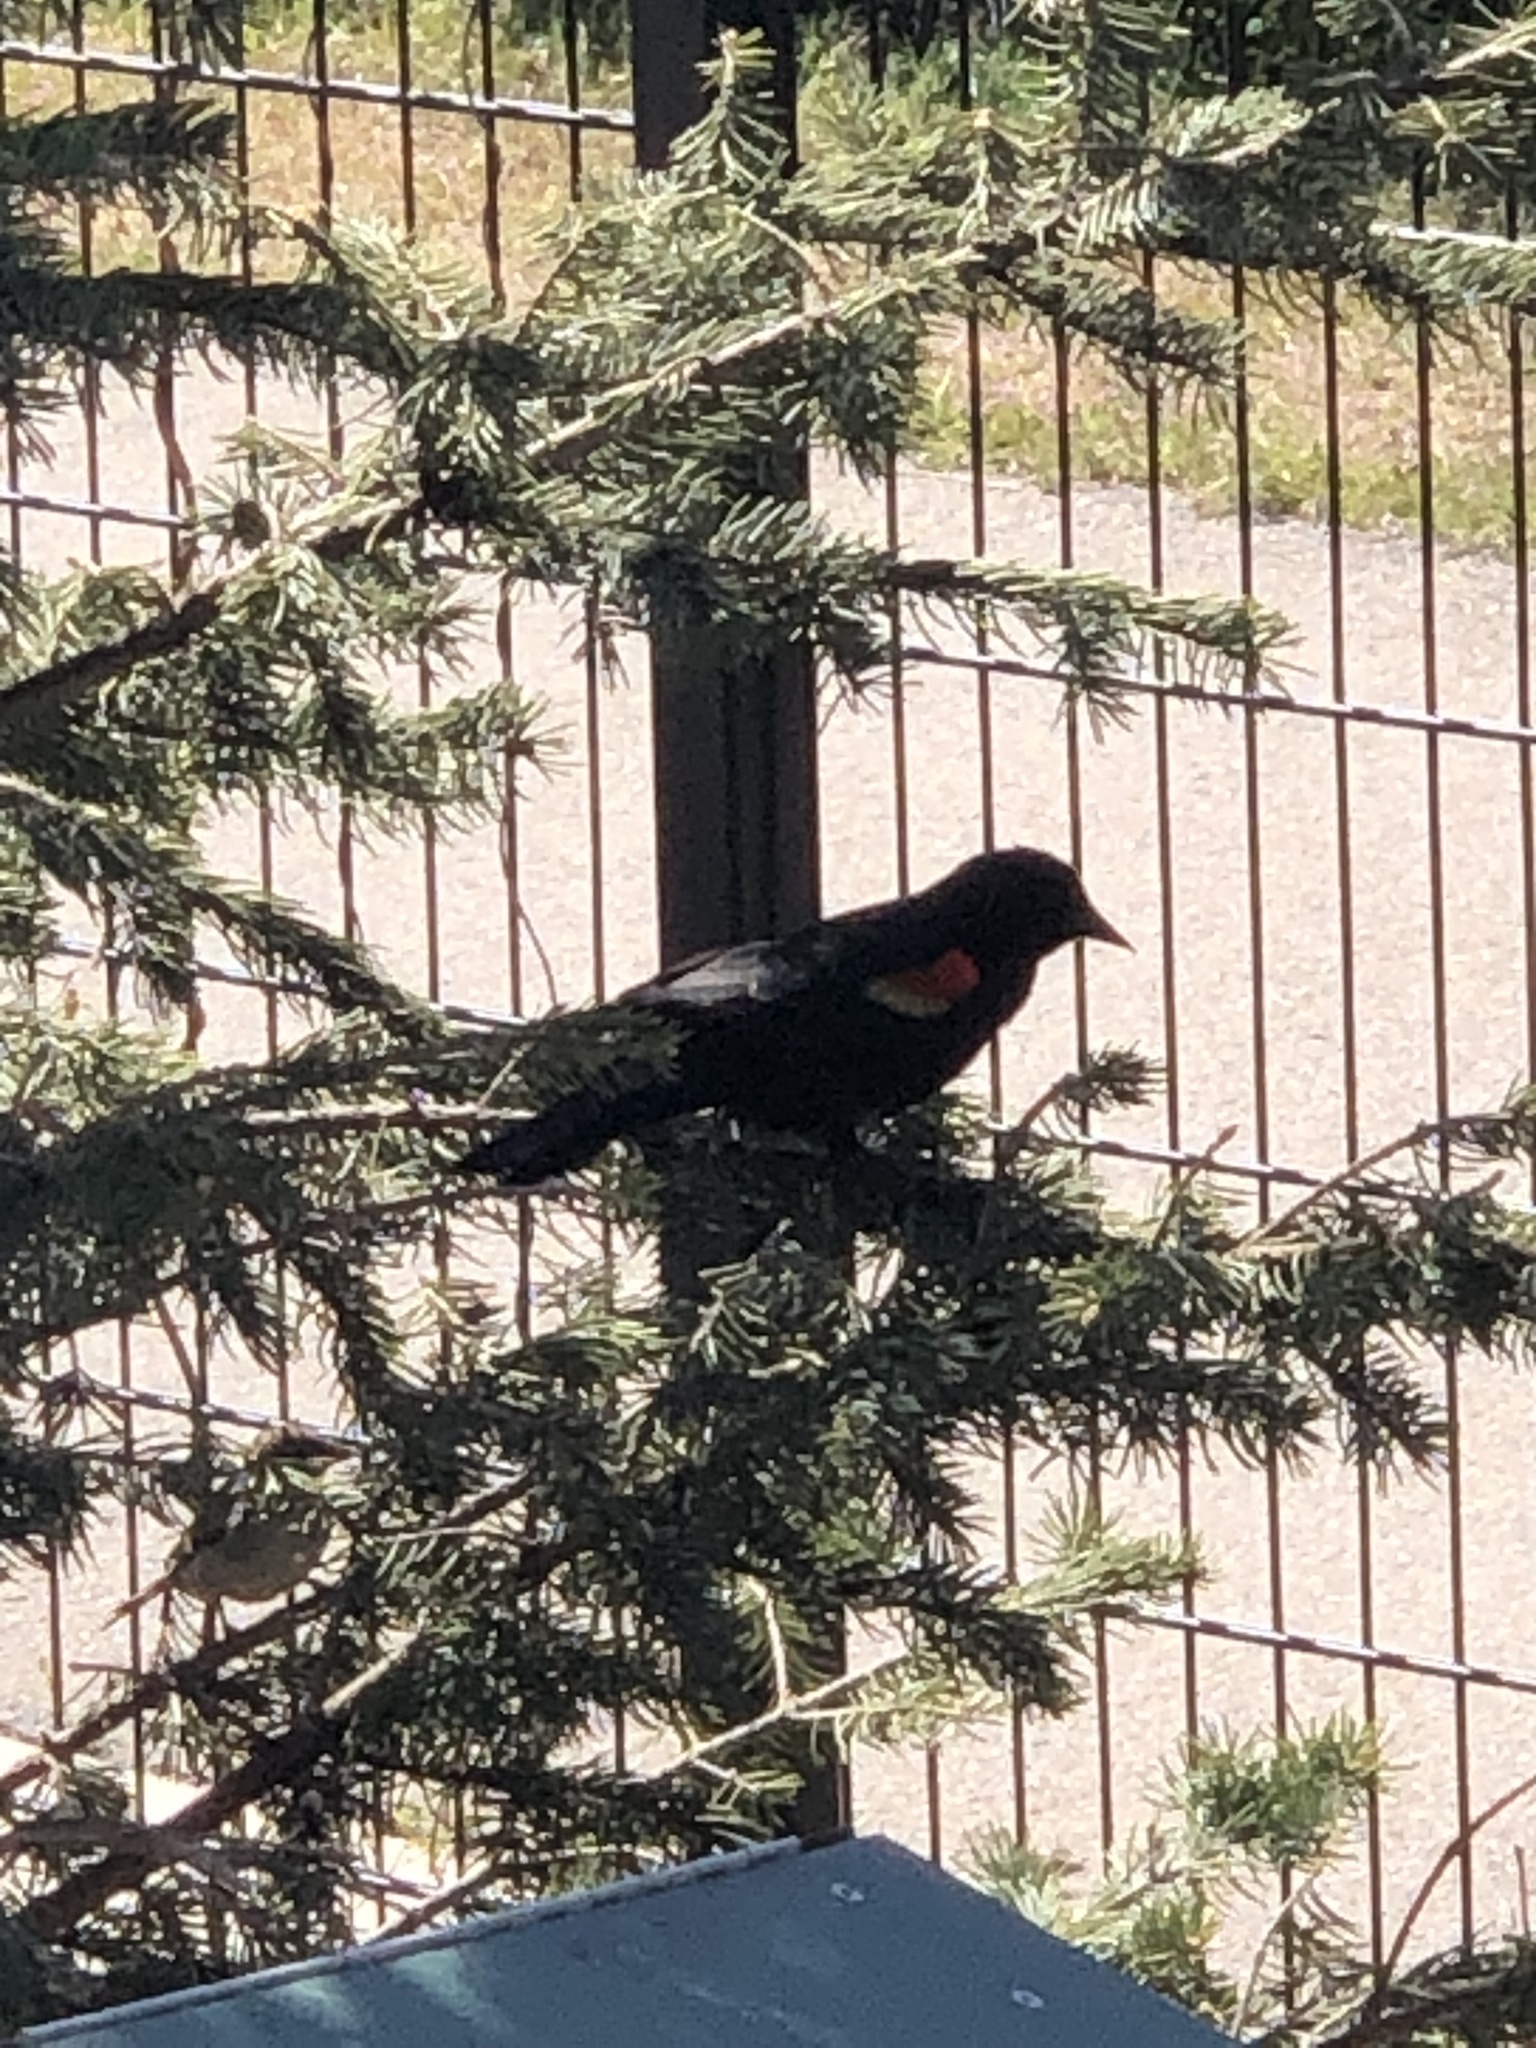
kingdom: Animalia
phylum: Chordata
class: Aves
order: Passeriformes
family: Icteridae
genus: Agelaius
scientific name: Agelaius phoeniceus
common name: Red-winged blackbird
